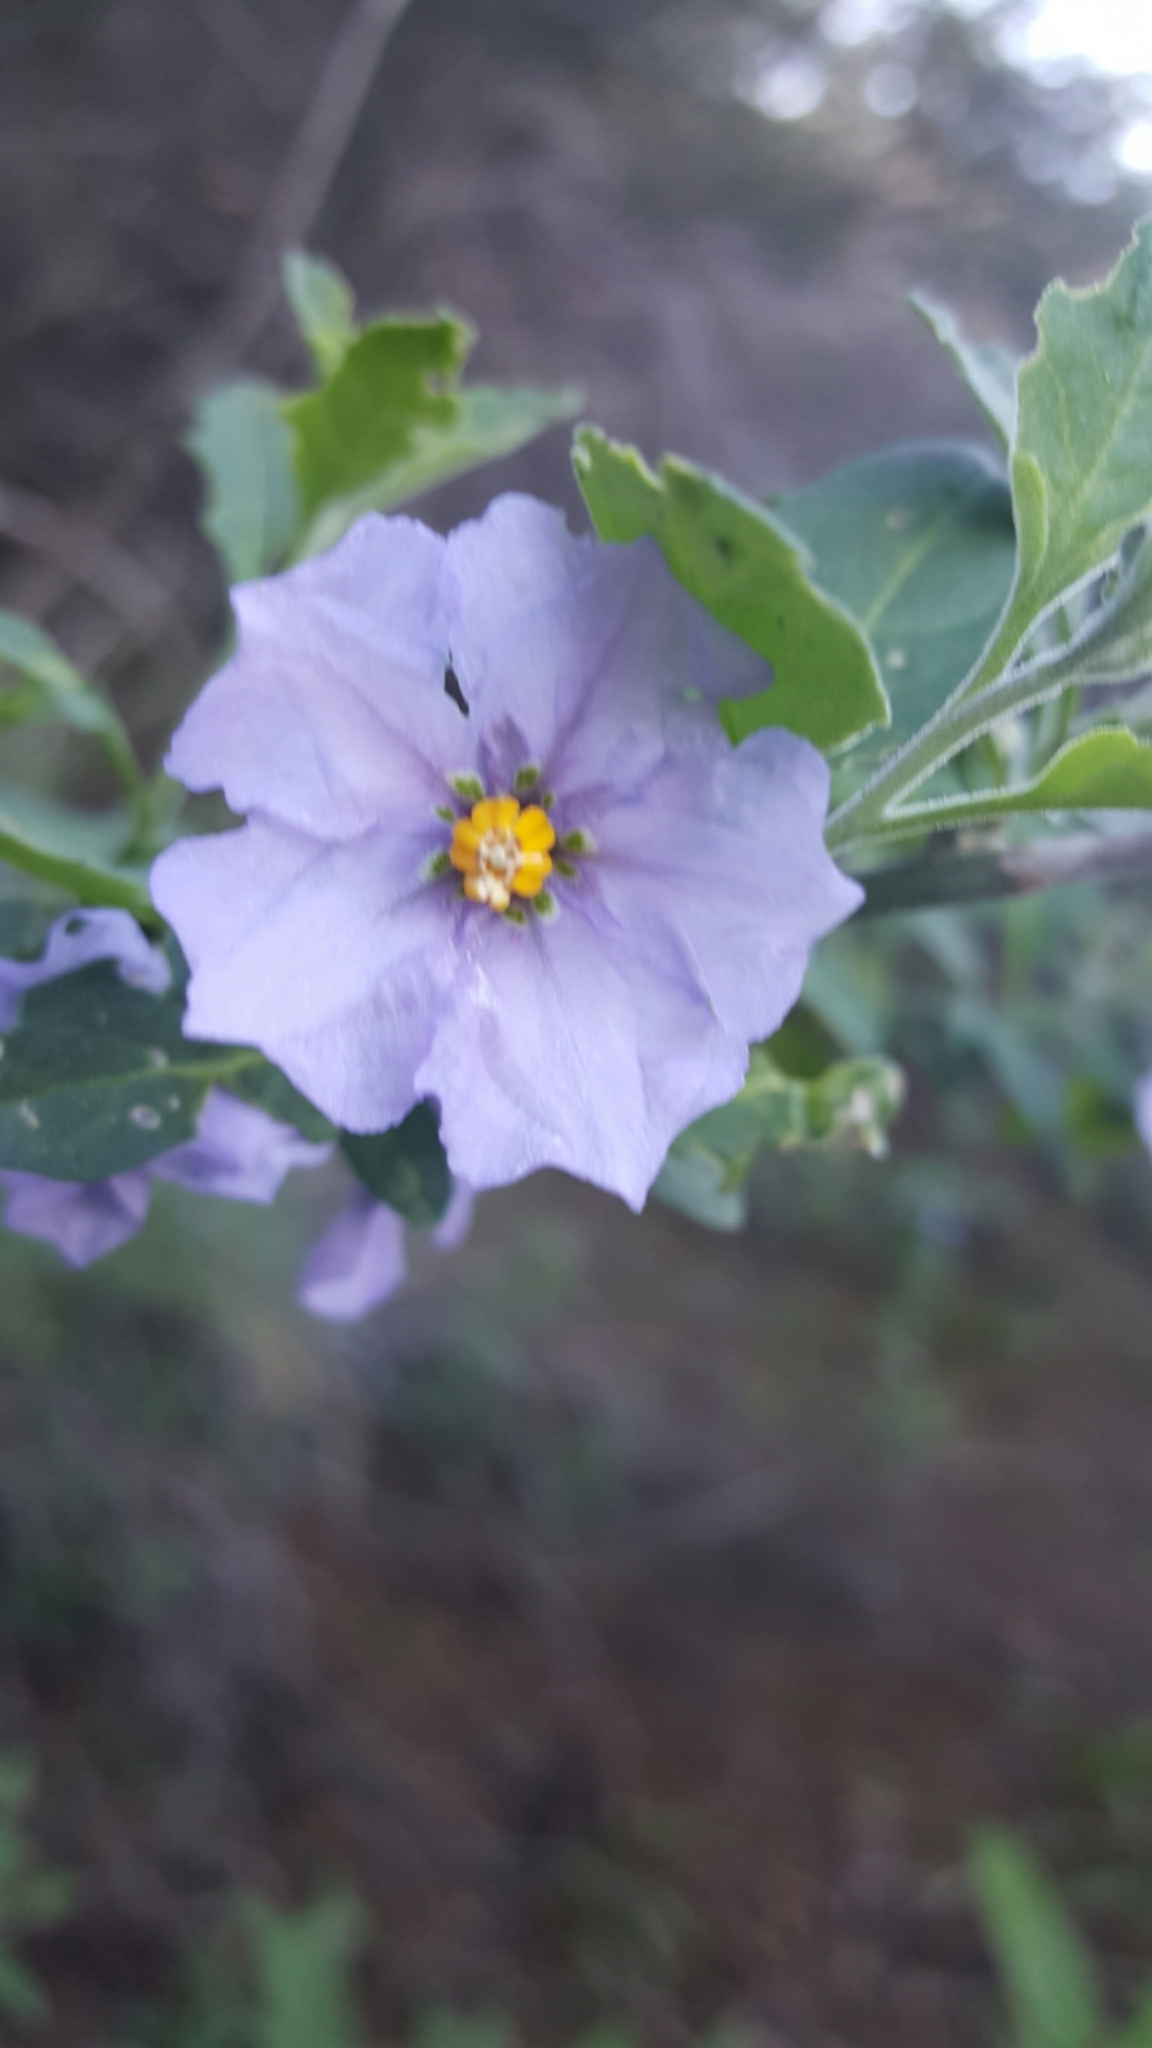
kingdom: Plantae
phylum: Tracheophyta
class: Magnoliopsida
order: Solanales
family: Solanaceae
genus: Solanum
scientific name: Solanum umbelliferum
